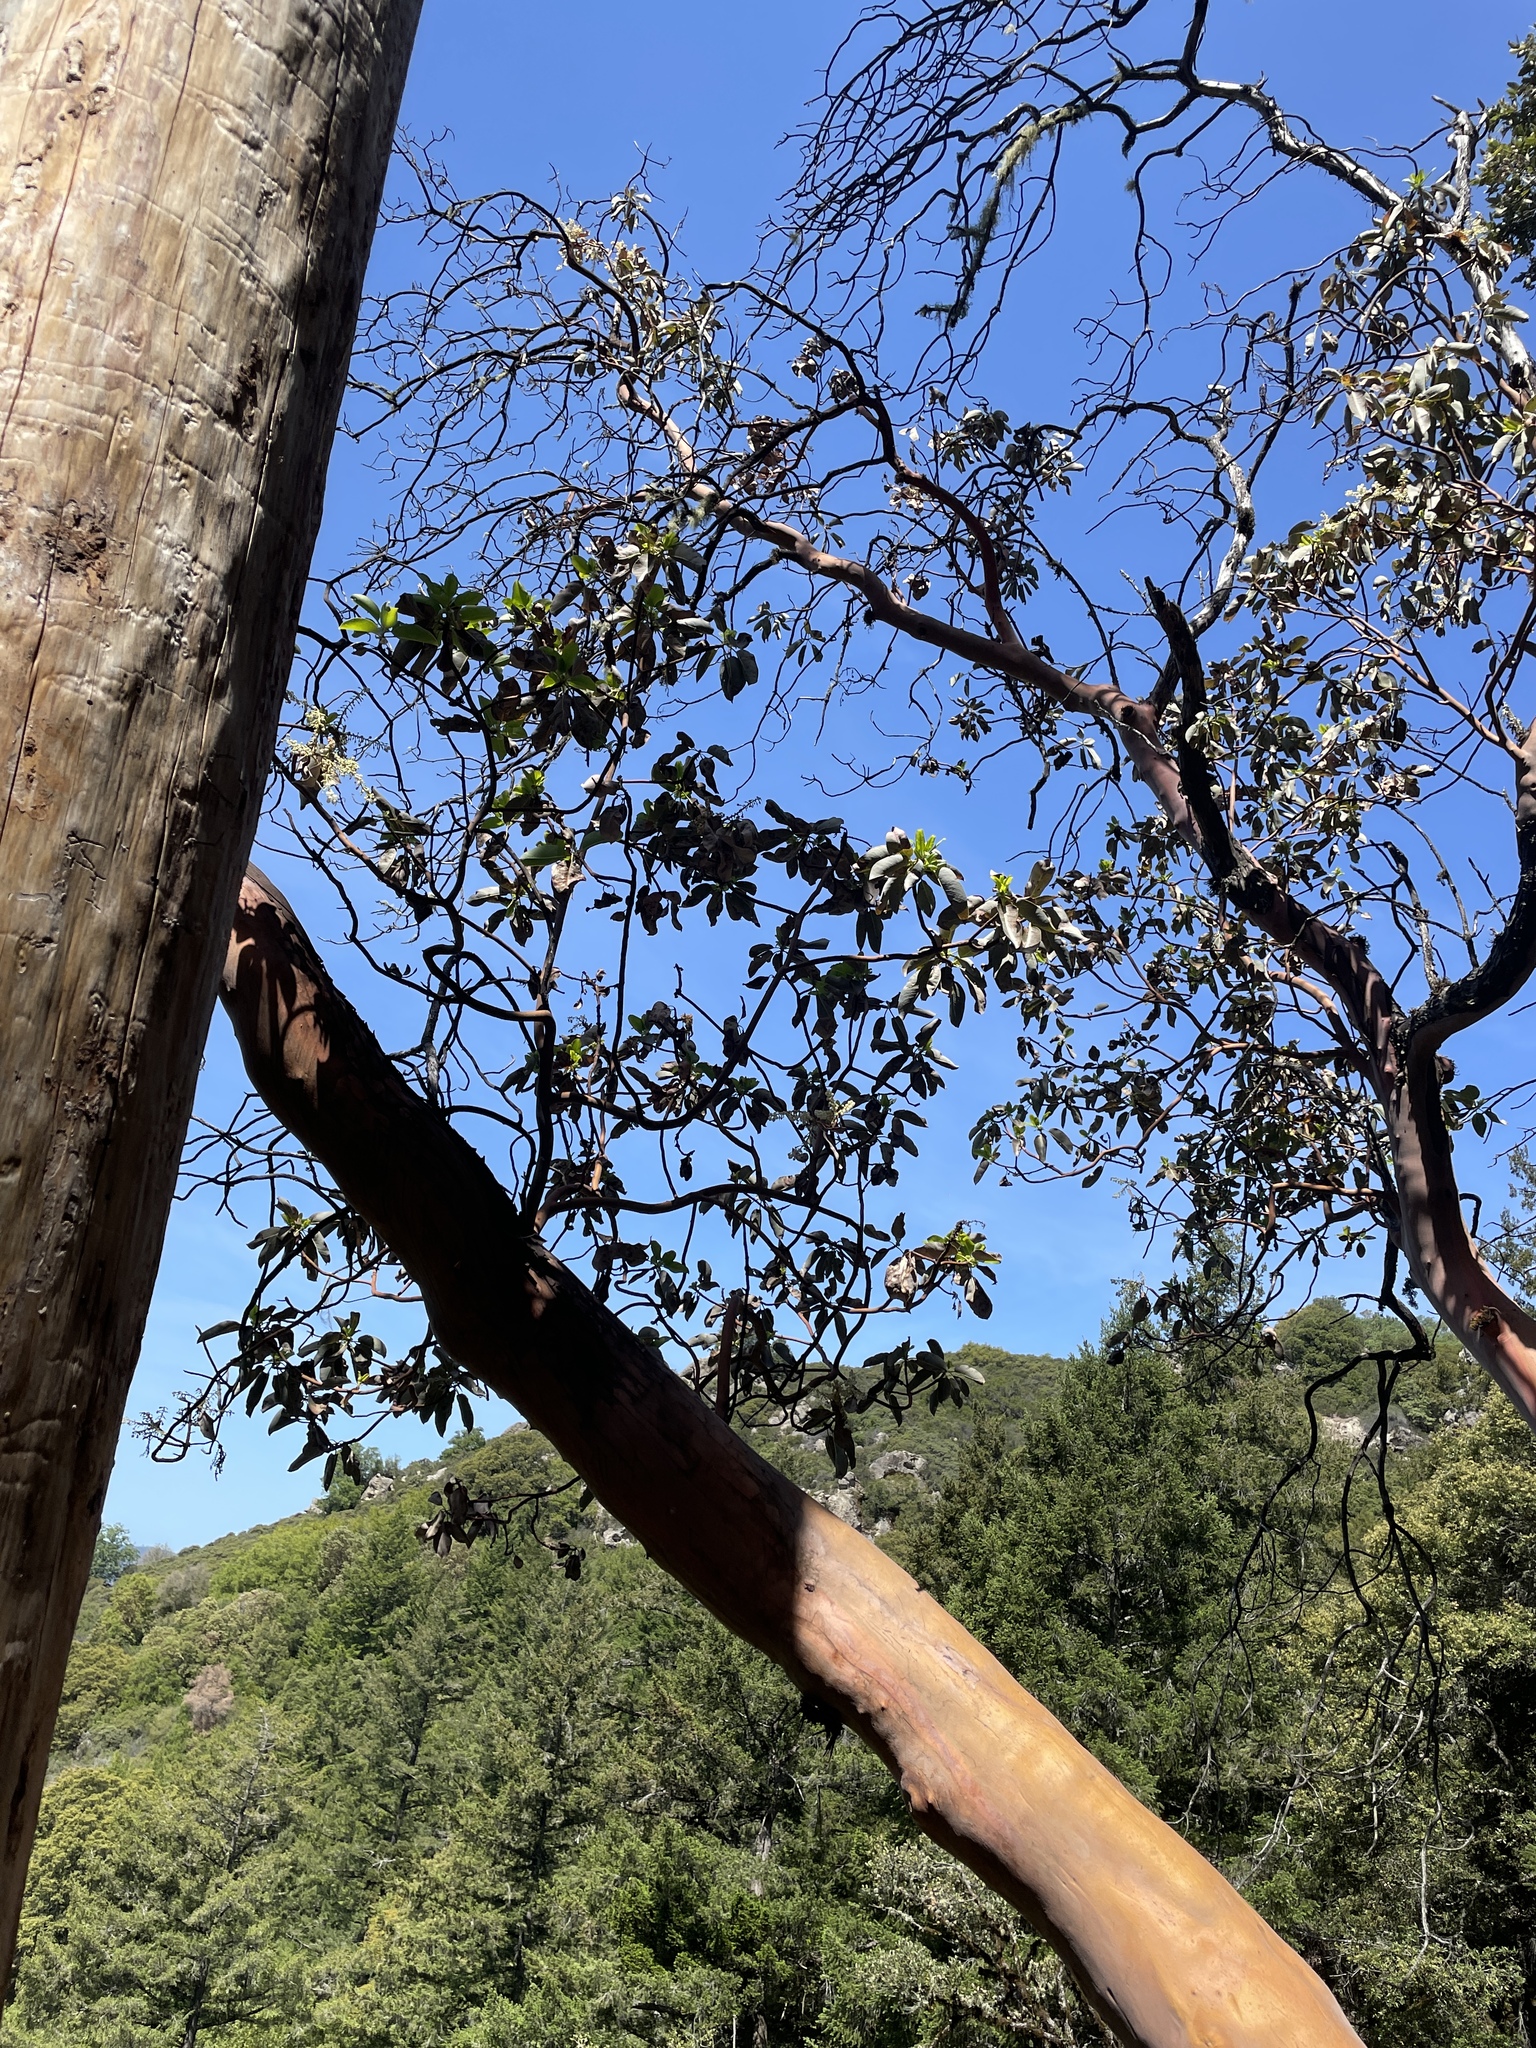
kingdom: Plantae
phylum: Tracheophyta
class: Magnoliopsida
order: Ericales
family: Ericaceae
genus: Arbutus
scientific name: Arbutus menziesii
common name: Pacific madrone
